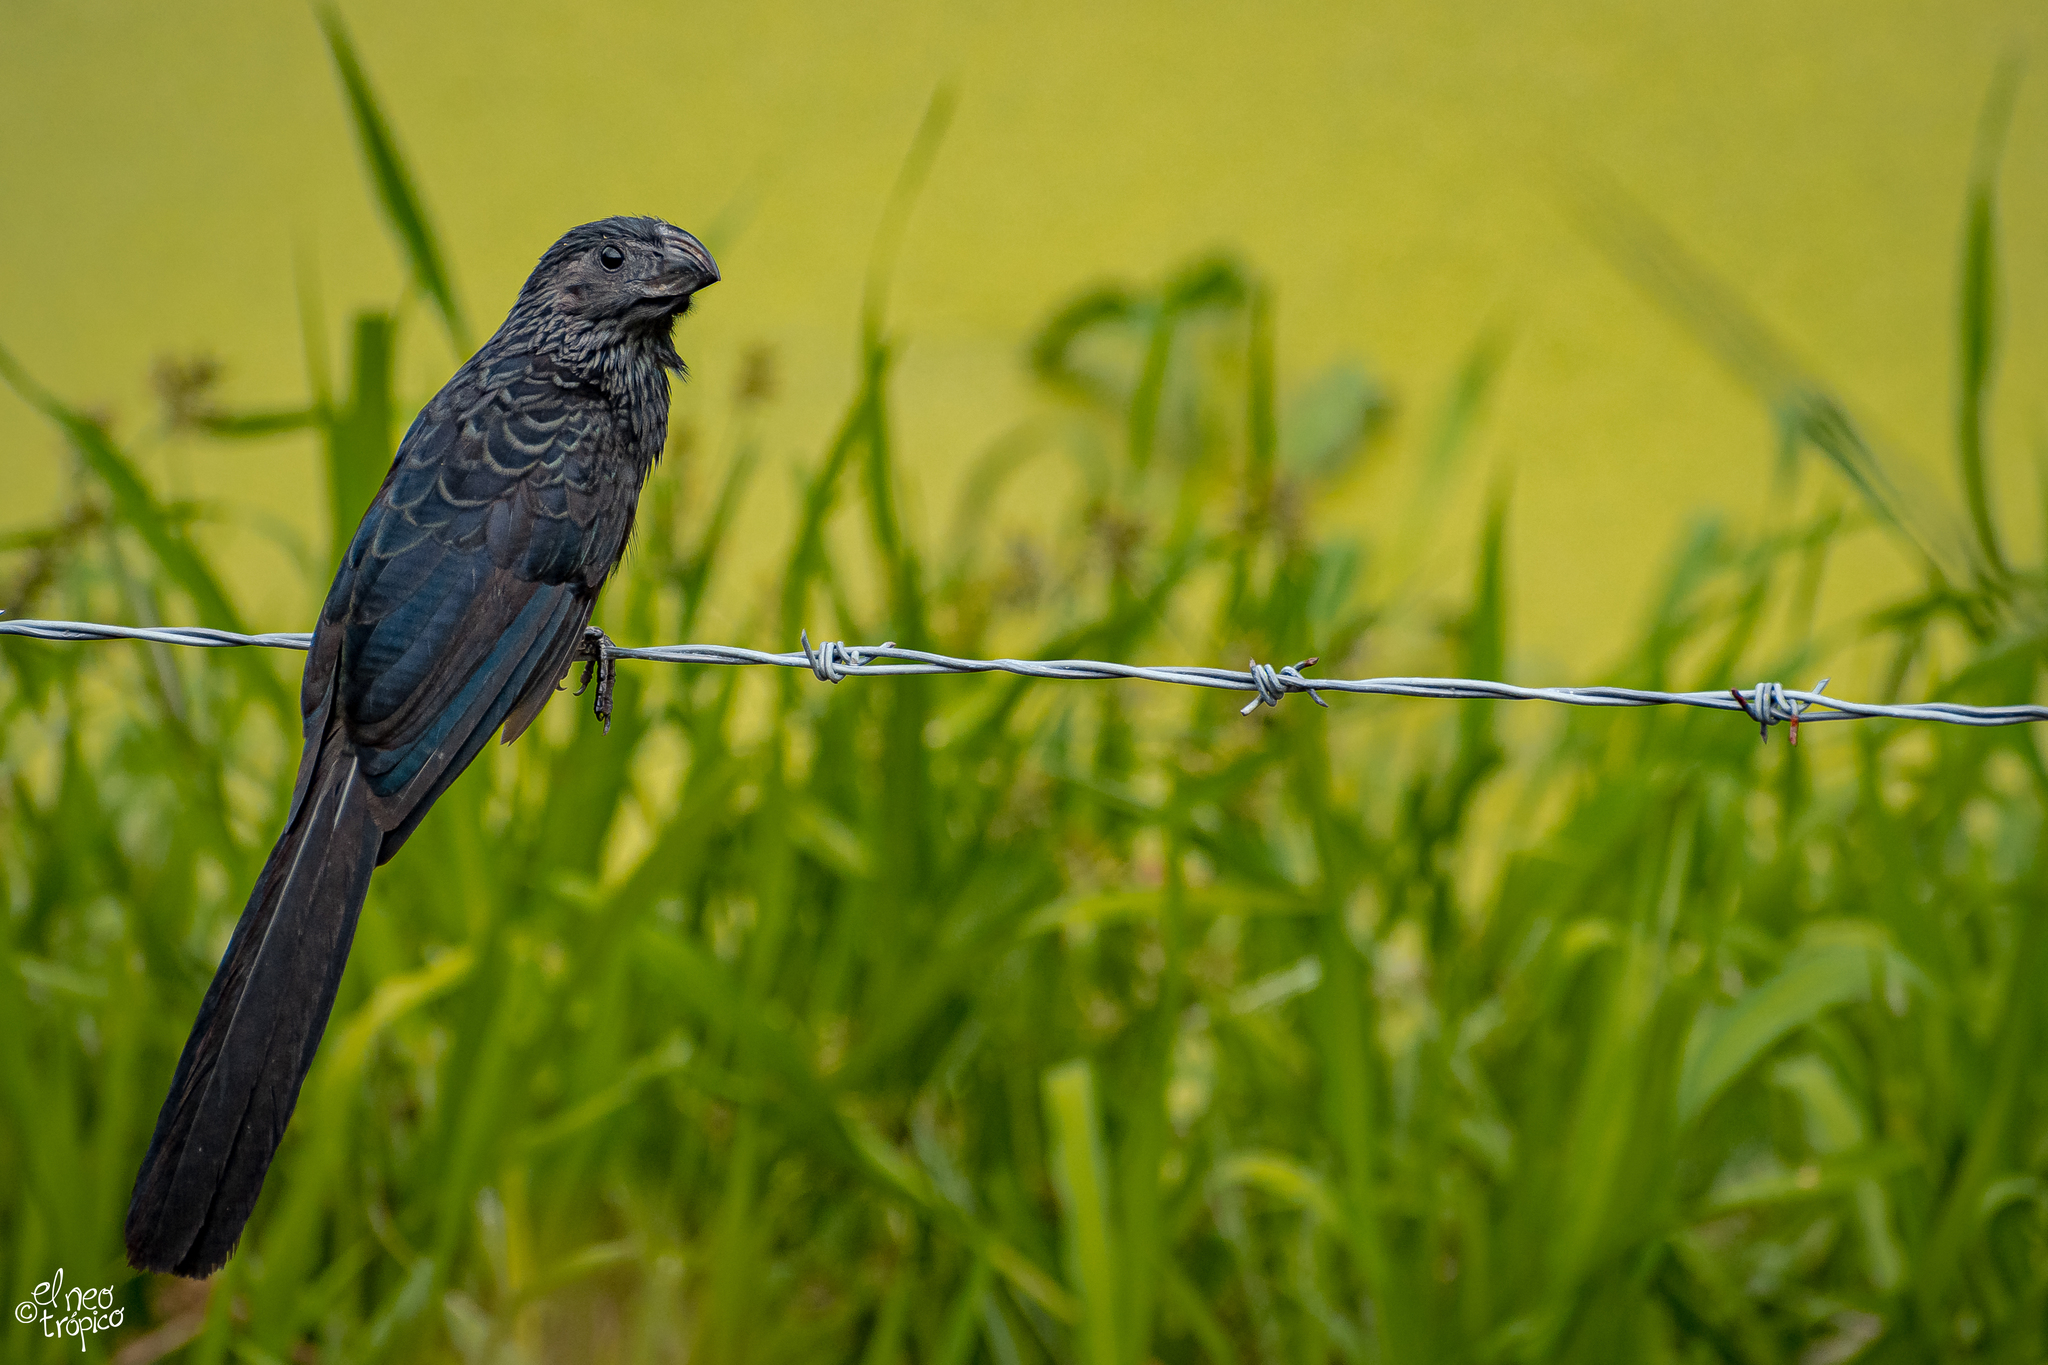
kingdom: Animalia
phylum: Chordata
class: Aves
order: Cuculiformes
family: Cuculidae
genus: Crotophaga
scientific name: Crotophaga sulcirostris
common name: Groove-billed ani
